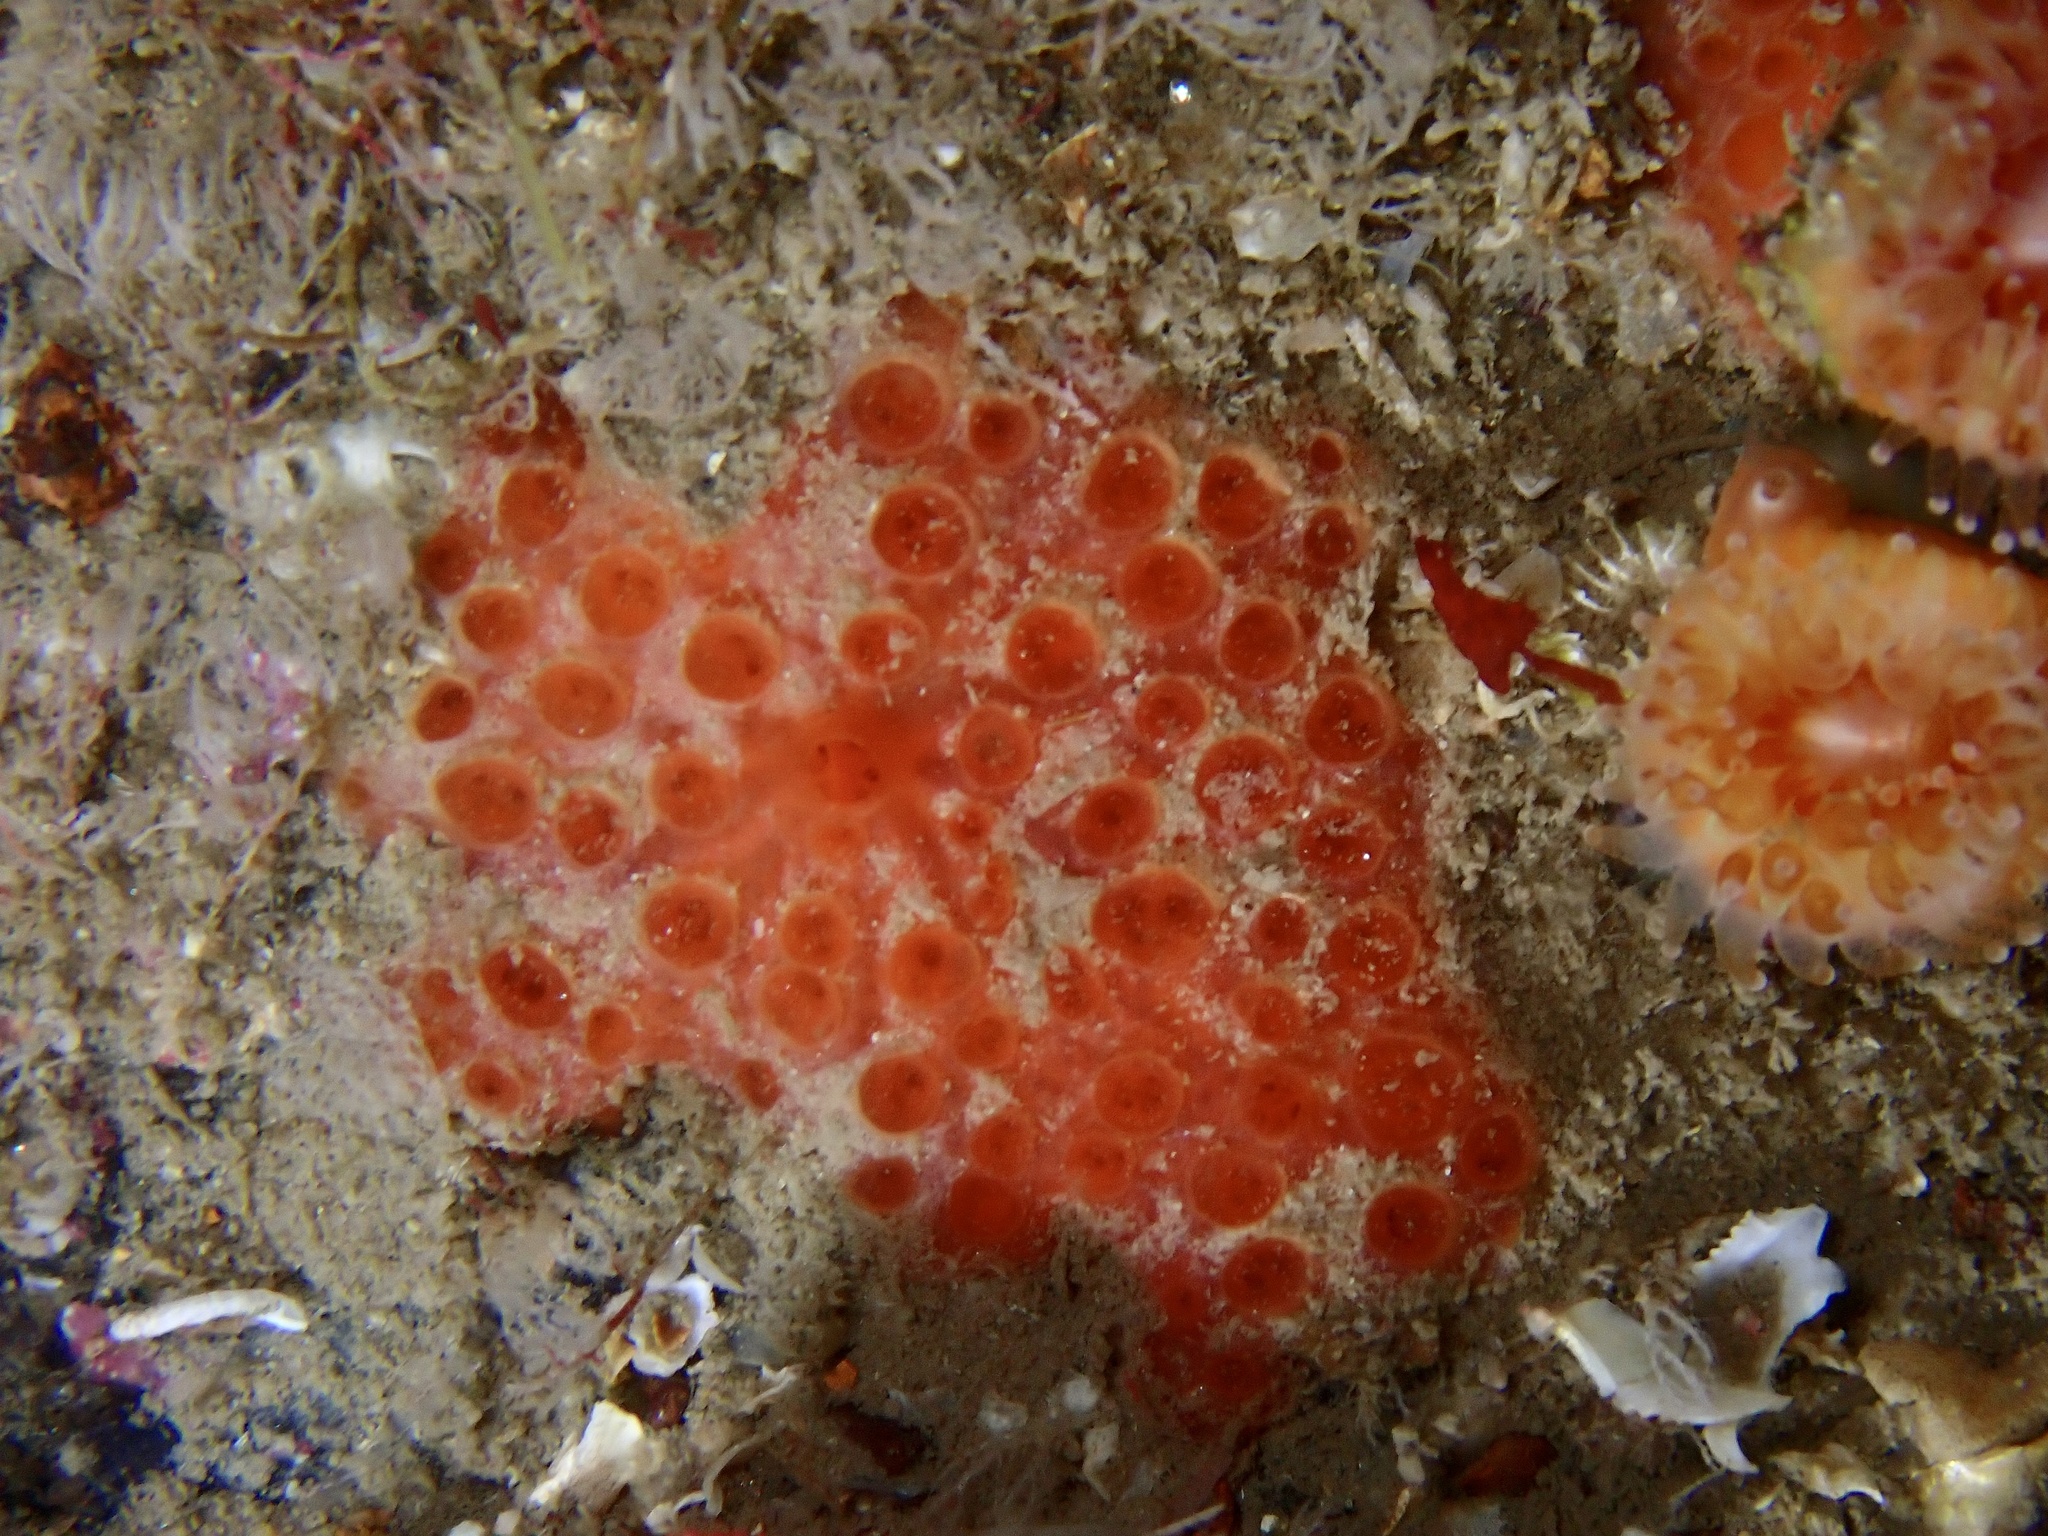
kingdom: Animalia
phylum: Porifera
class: Demospongiae
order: Poecilosclerida
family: Hymedesmiidae
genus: Phorbas
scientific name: Phorbas fictitius
